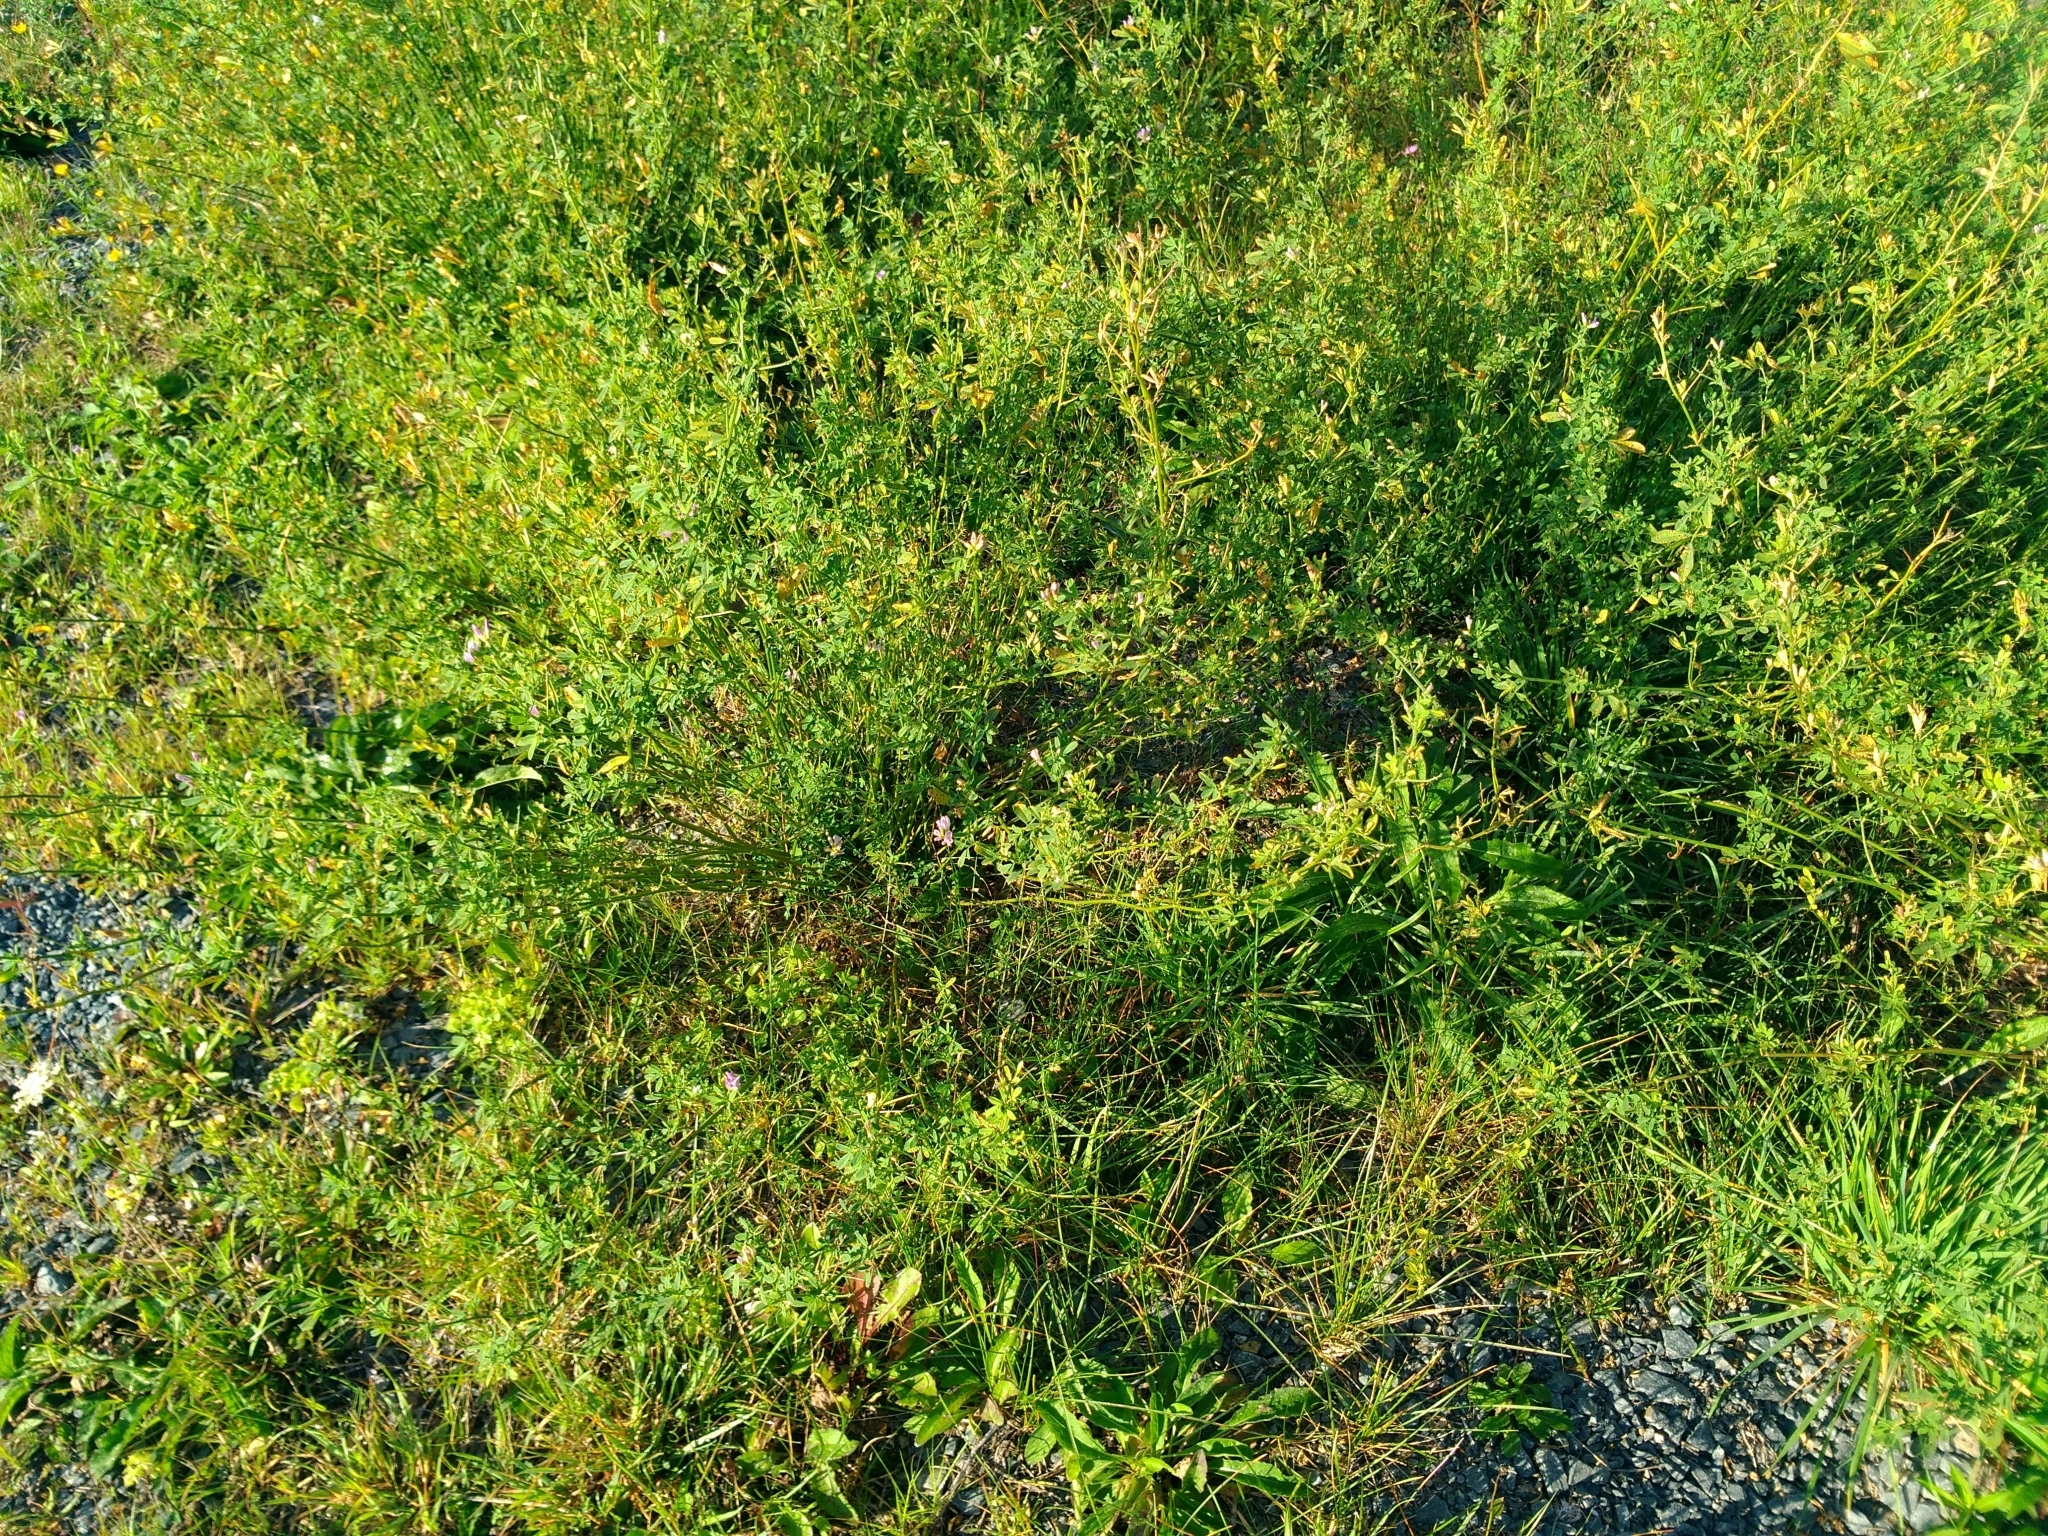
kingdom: Plantae
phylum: Tracheophyta
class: Magnoliopsida
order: Fabales
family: Fabaceae
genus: Medicago
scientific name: Medicago sativa
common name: Alfalfa
